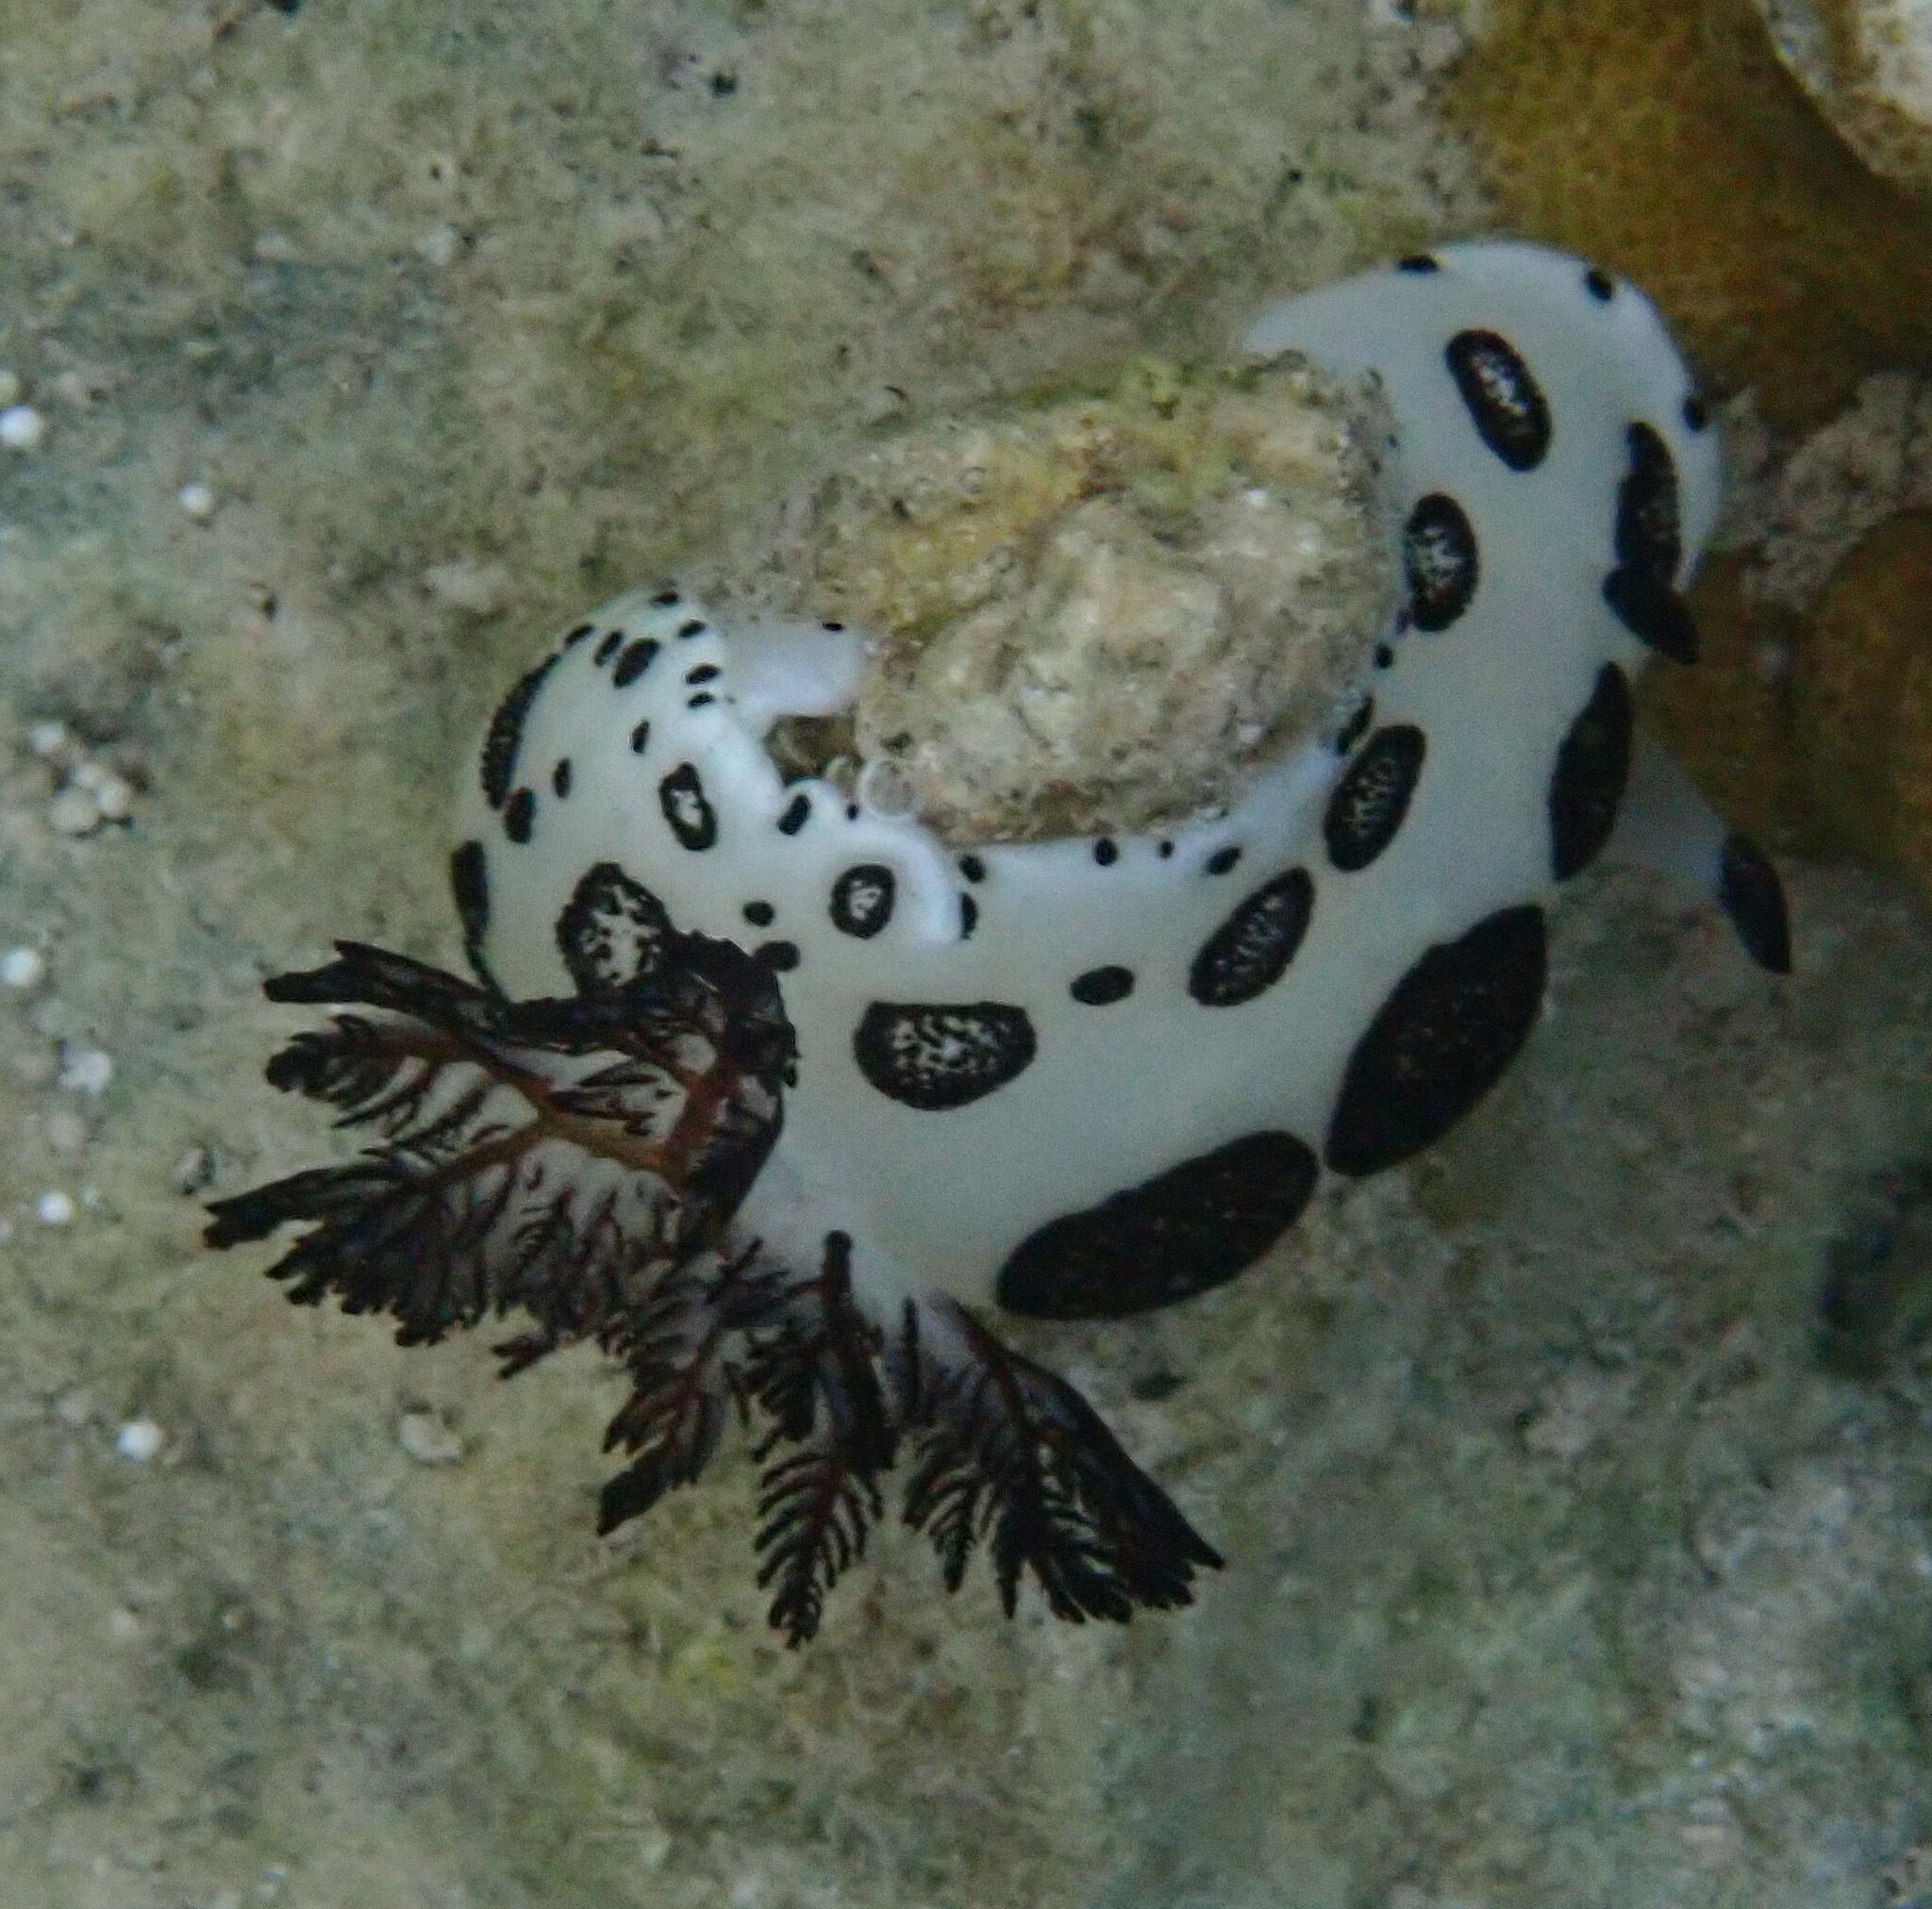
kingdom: Animalia
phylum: Mollusca
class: Gastropoda
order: Nudibranchia
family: Discodorididae
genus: Jorunna
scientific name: Jorunna funebris
